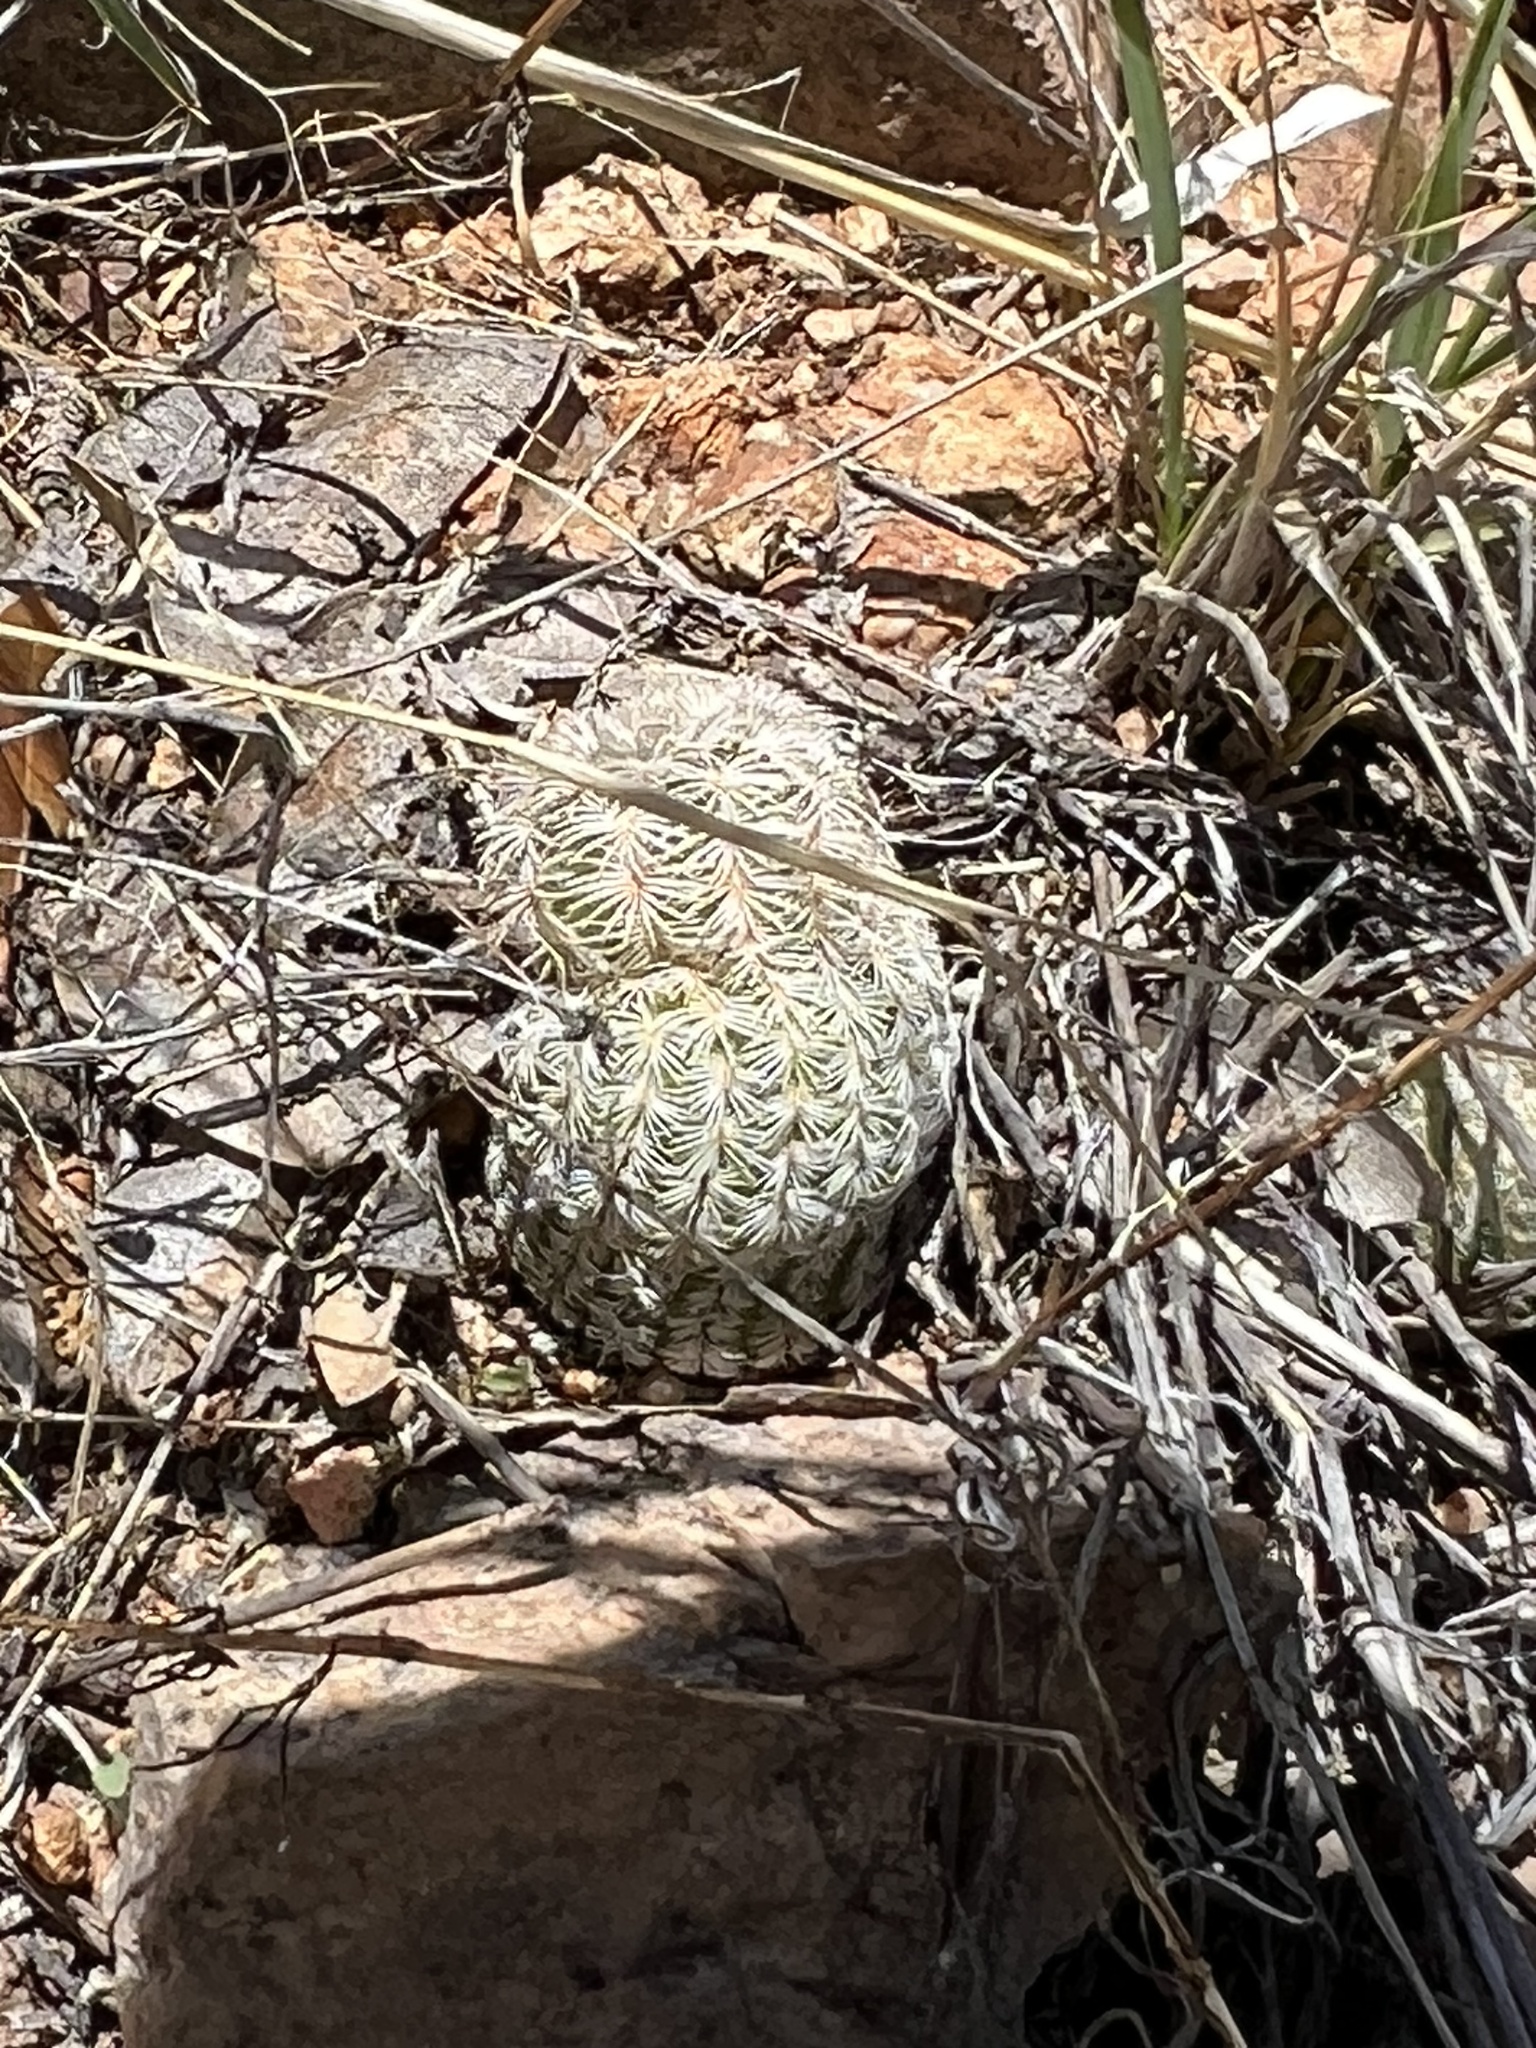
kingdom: Plantae
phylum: Tracheophyta
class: Magnoliopsida
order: Caryophyllales
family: Cactaceae
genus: Echinocereus
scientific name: Echinocereus rigidissimus
